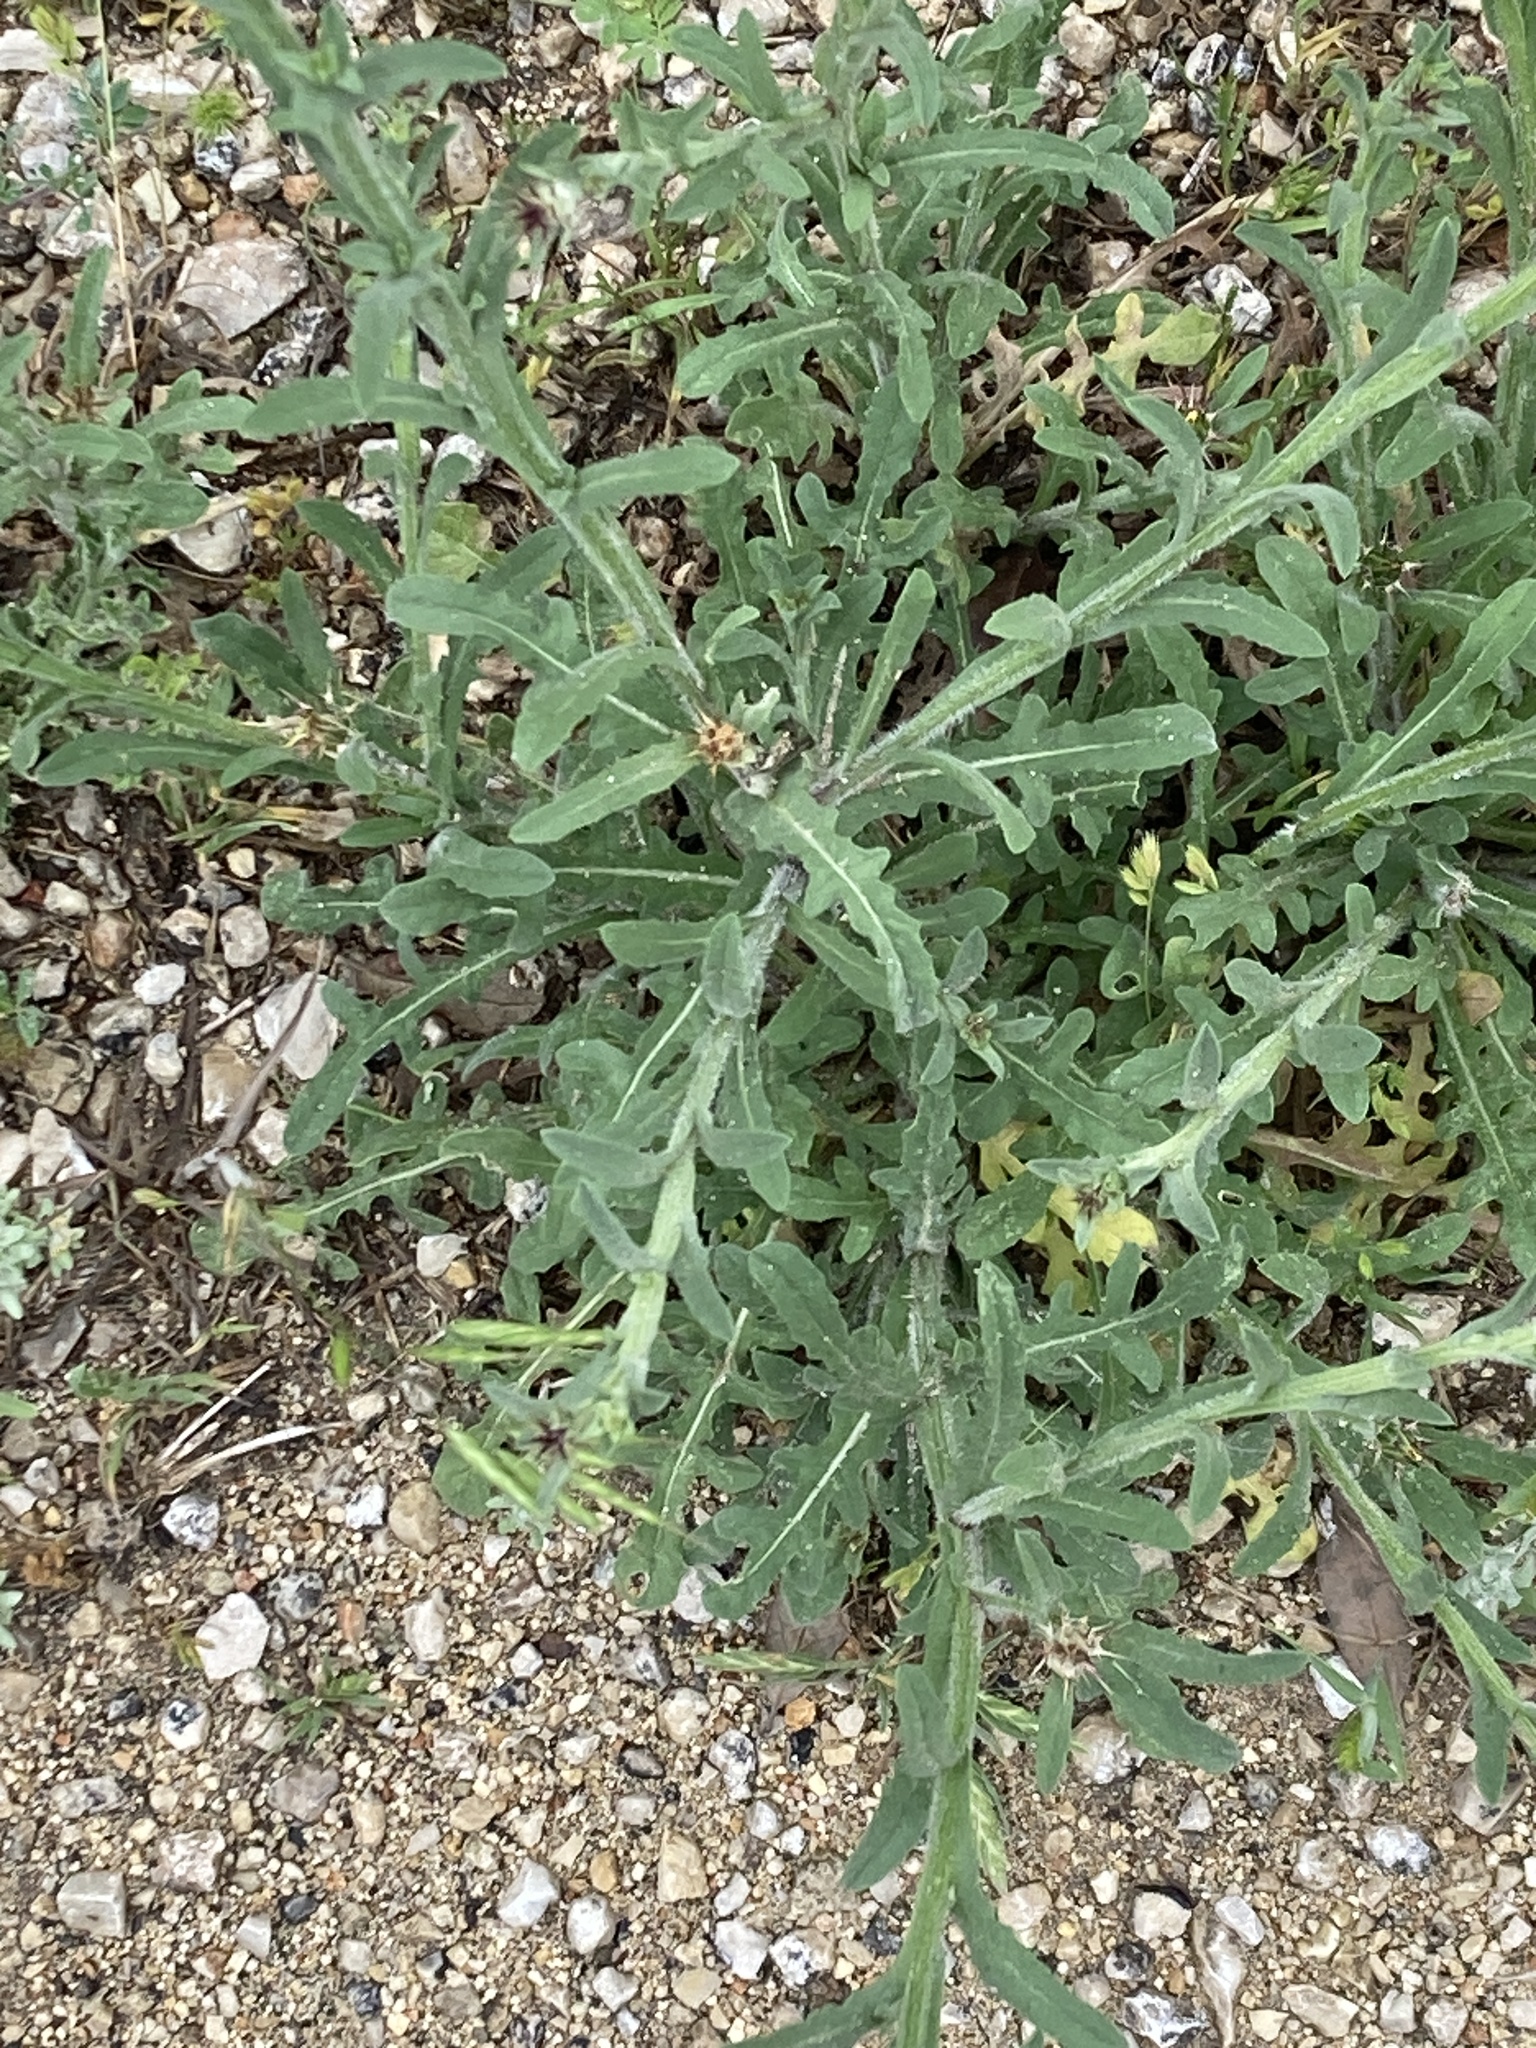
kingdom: Plantae
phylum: Tracheophyta
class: Magnoliopsida
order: Asterales
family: Asteraceae
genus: Centaurea
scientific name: Centaurea melitensis
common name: Maltese star-thistle
